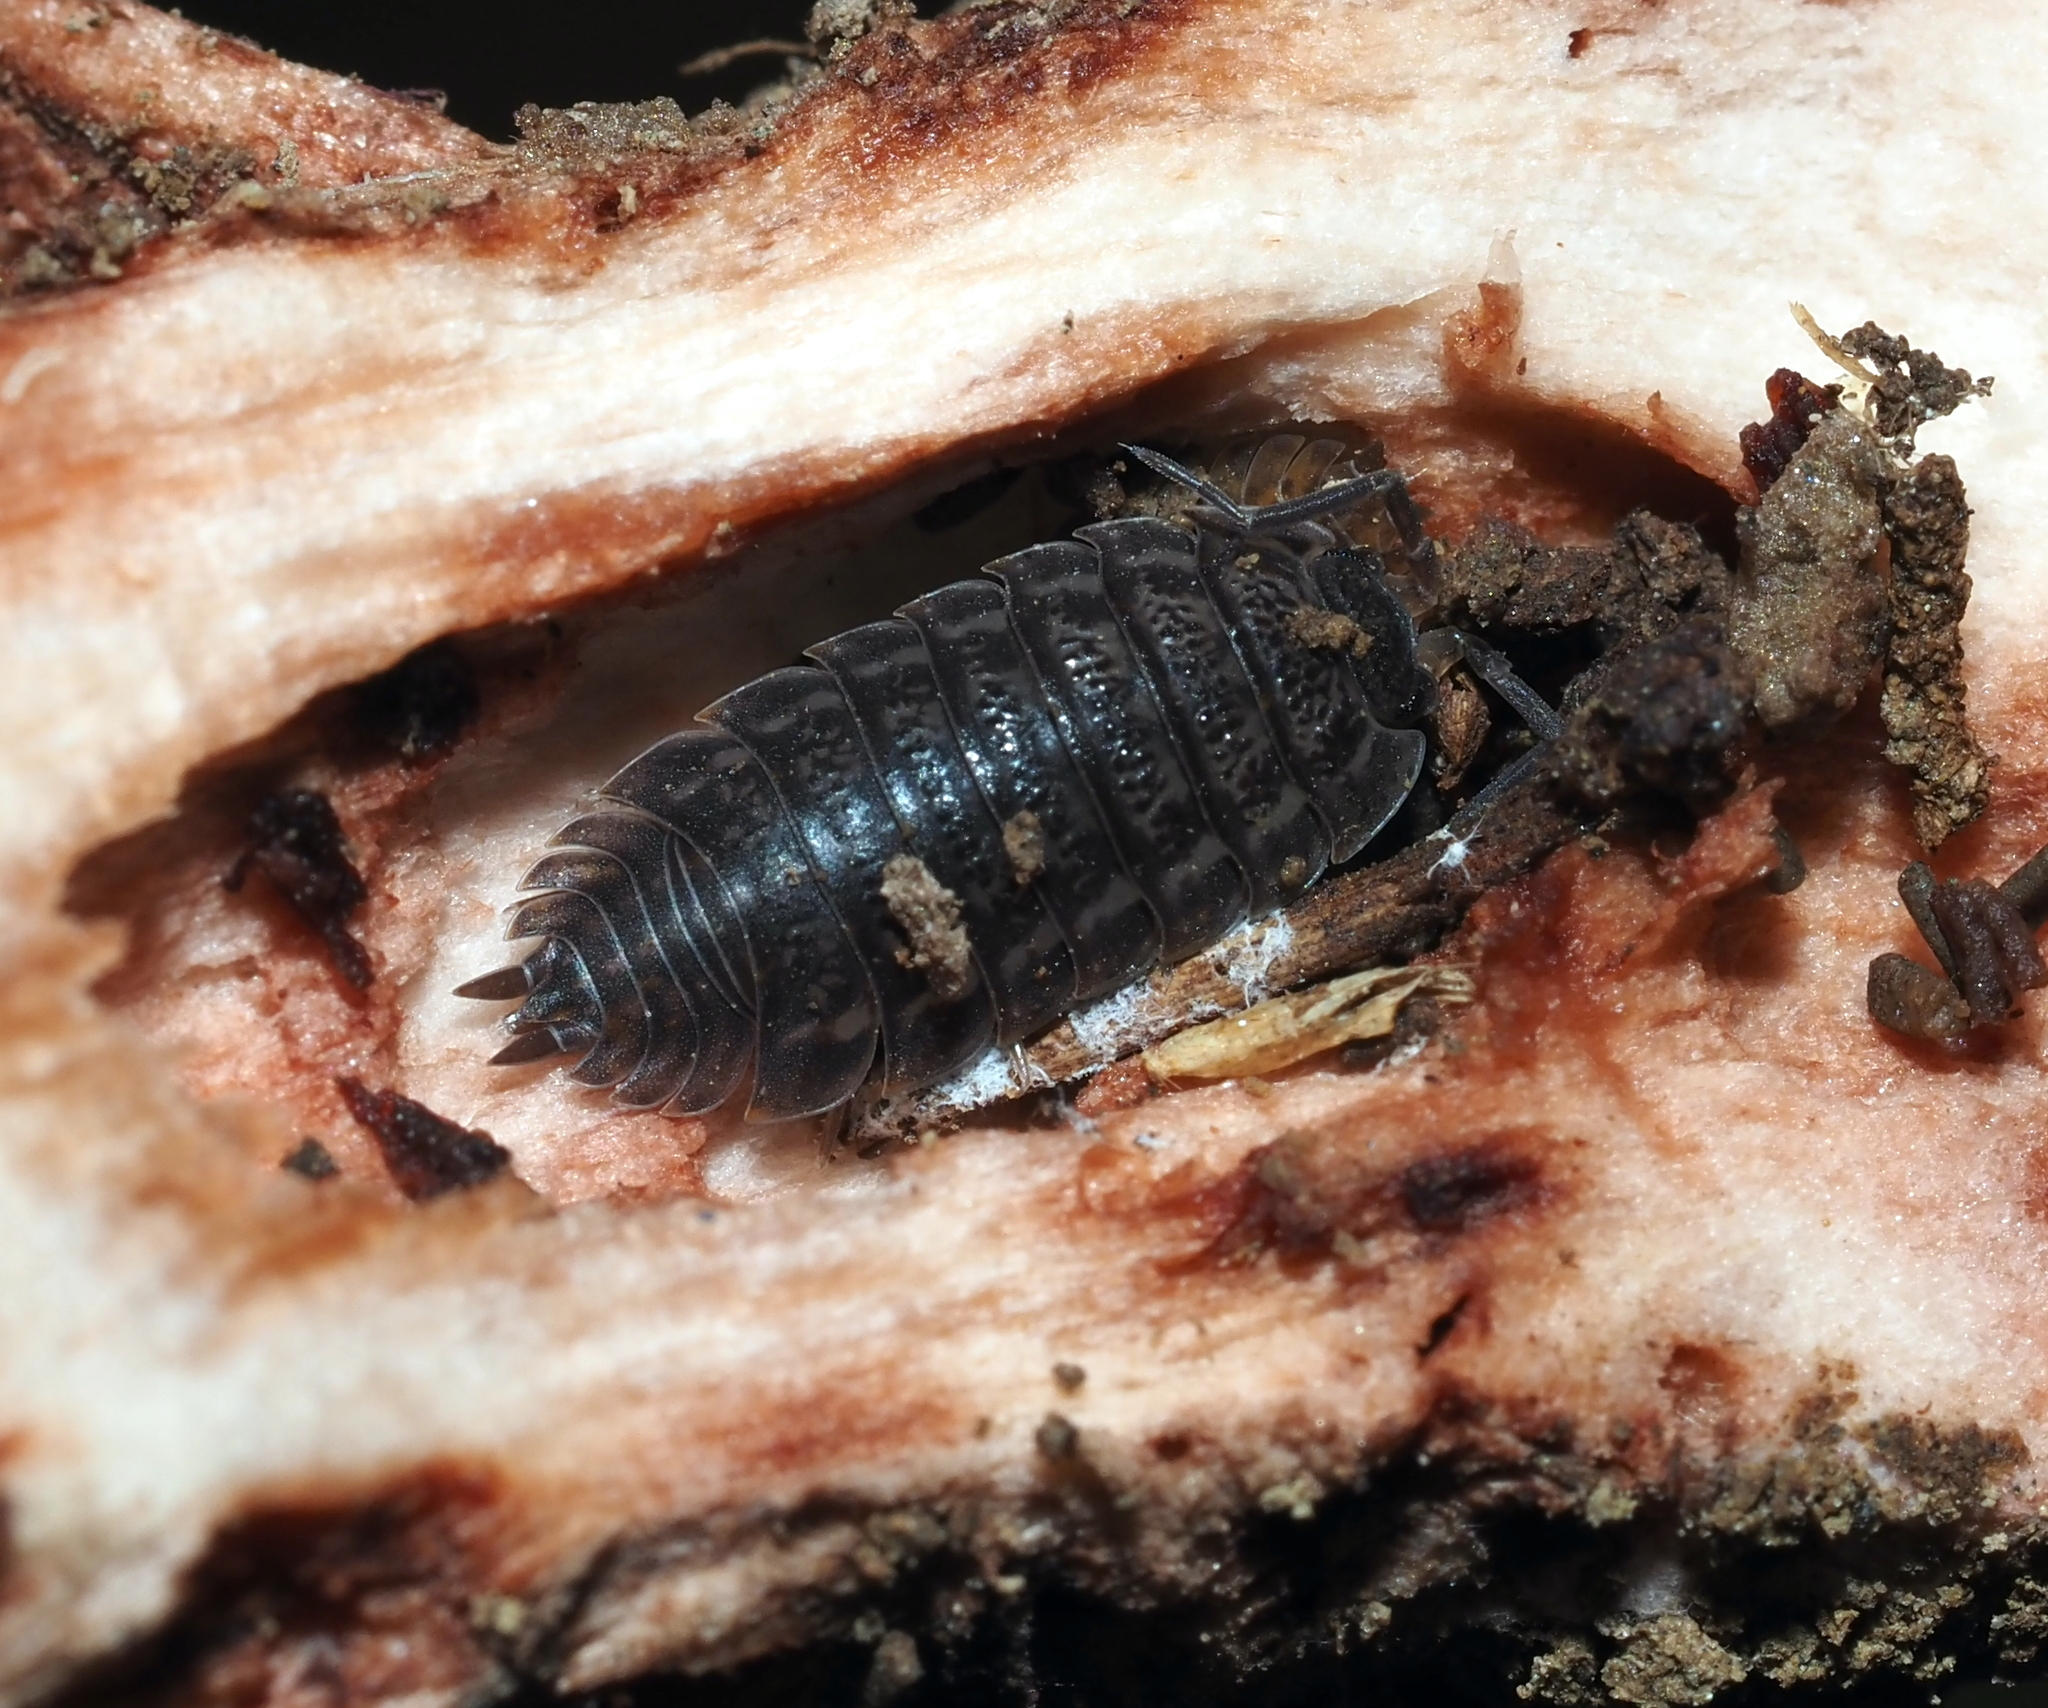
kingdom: Animalia
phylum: Arthropoda
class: Malacostraca
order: Isopoda
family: Trachelipodidae
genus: Trachelipus
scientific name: Trachelipus rathkii
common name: Isopod
